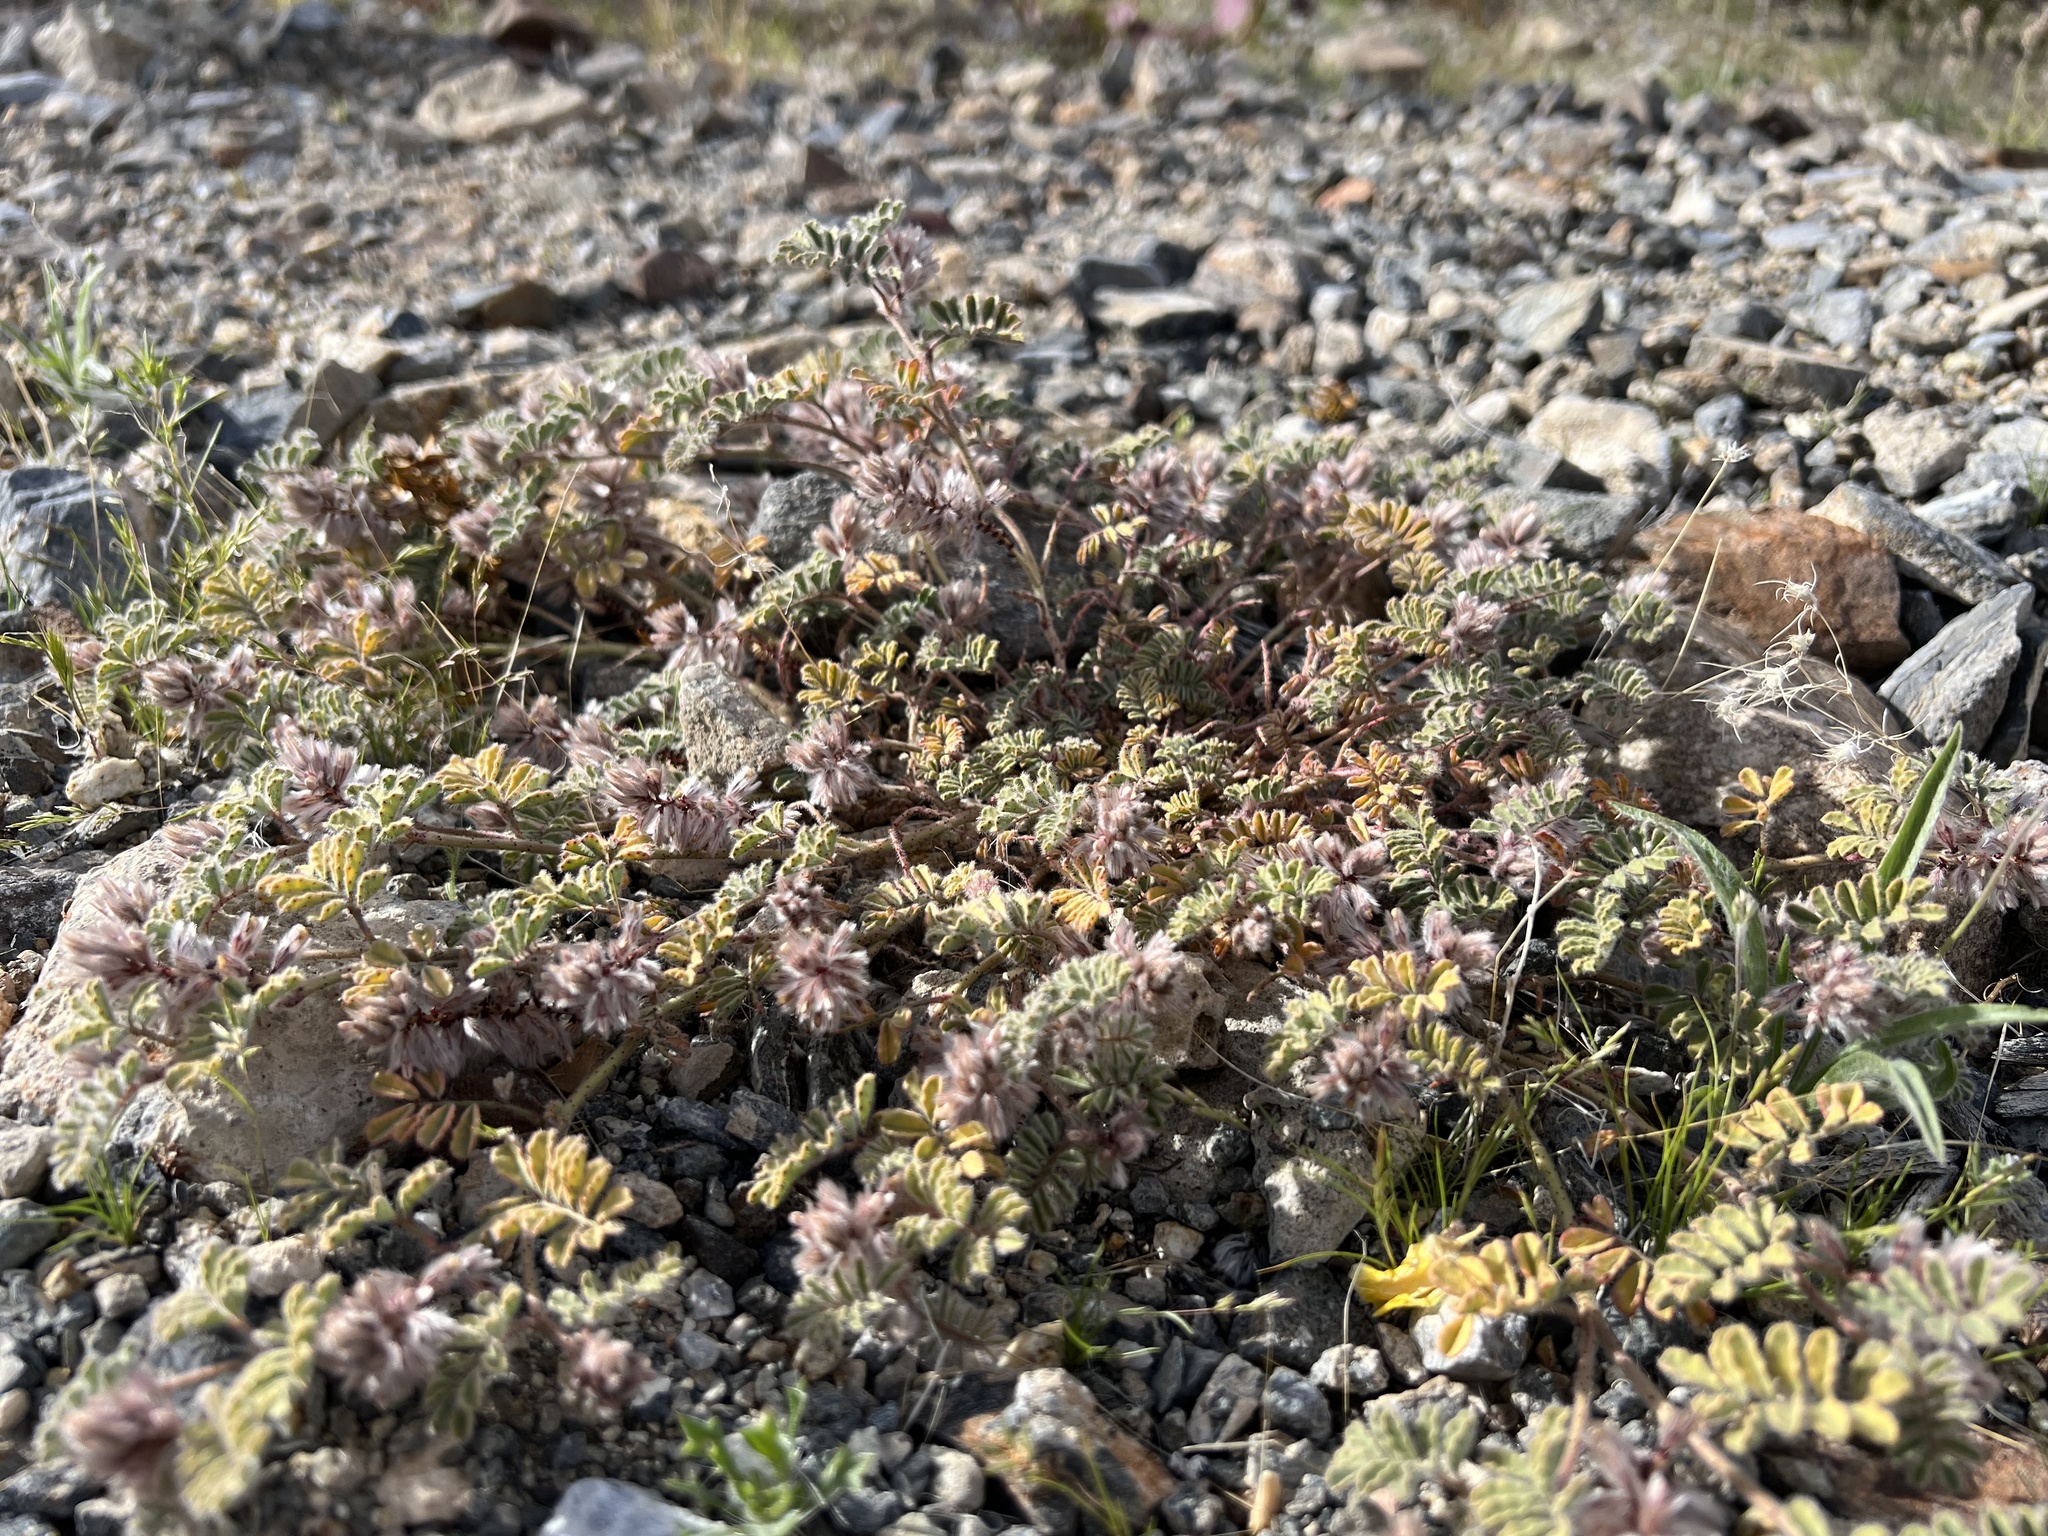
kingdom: Plantae
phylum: Tracheophyta
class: Magnoliopsida
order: Fabales
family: Fabaceae
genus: Dalea
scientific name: Dalea mollissima
